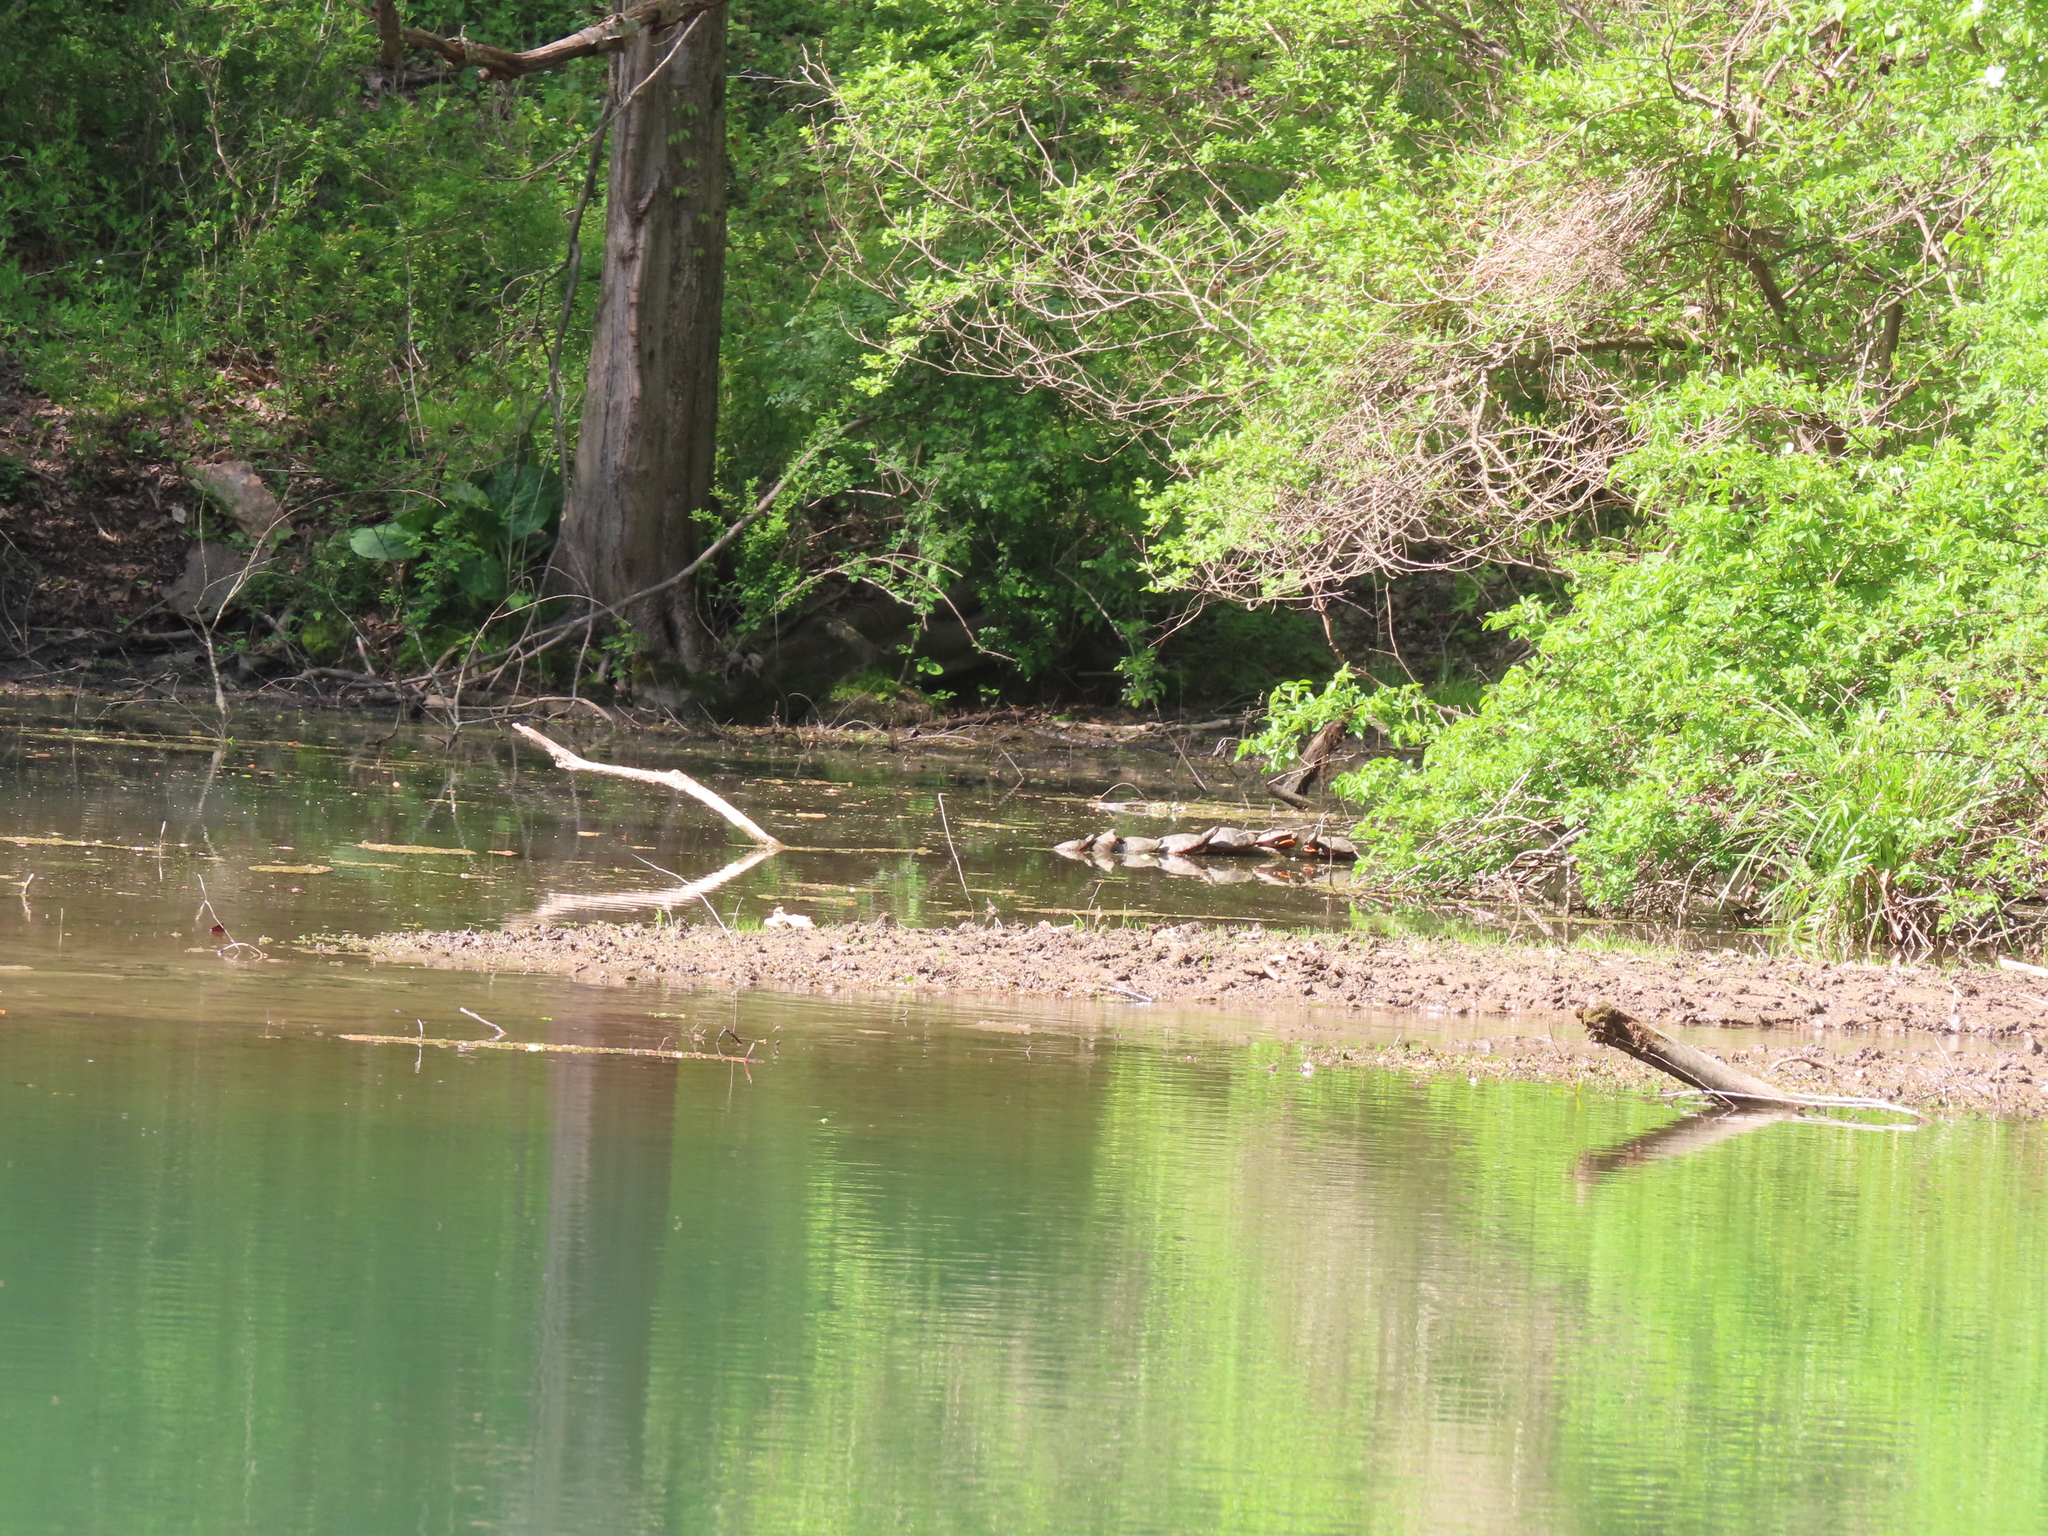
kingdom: Animalia
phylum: Chordata
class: Testudines
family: Emydidae
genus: Chrysemys
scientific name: Chrysemys picta
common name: Painted turtle
